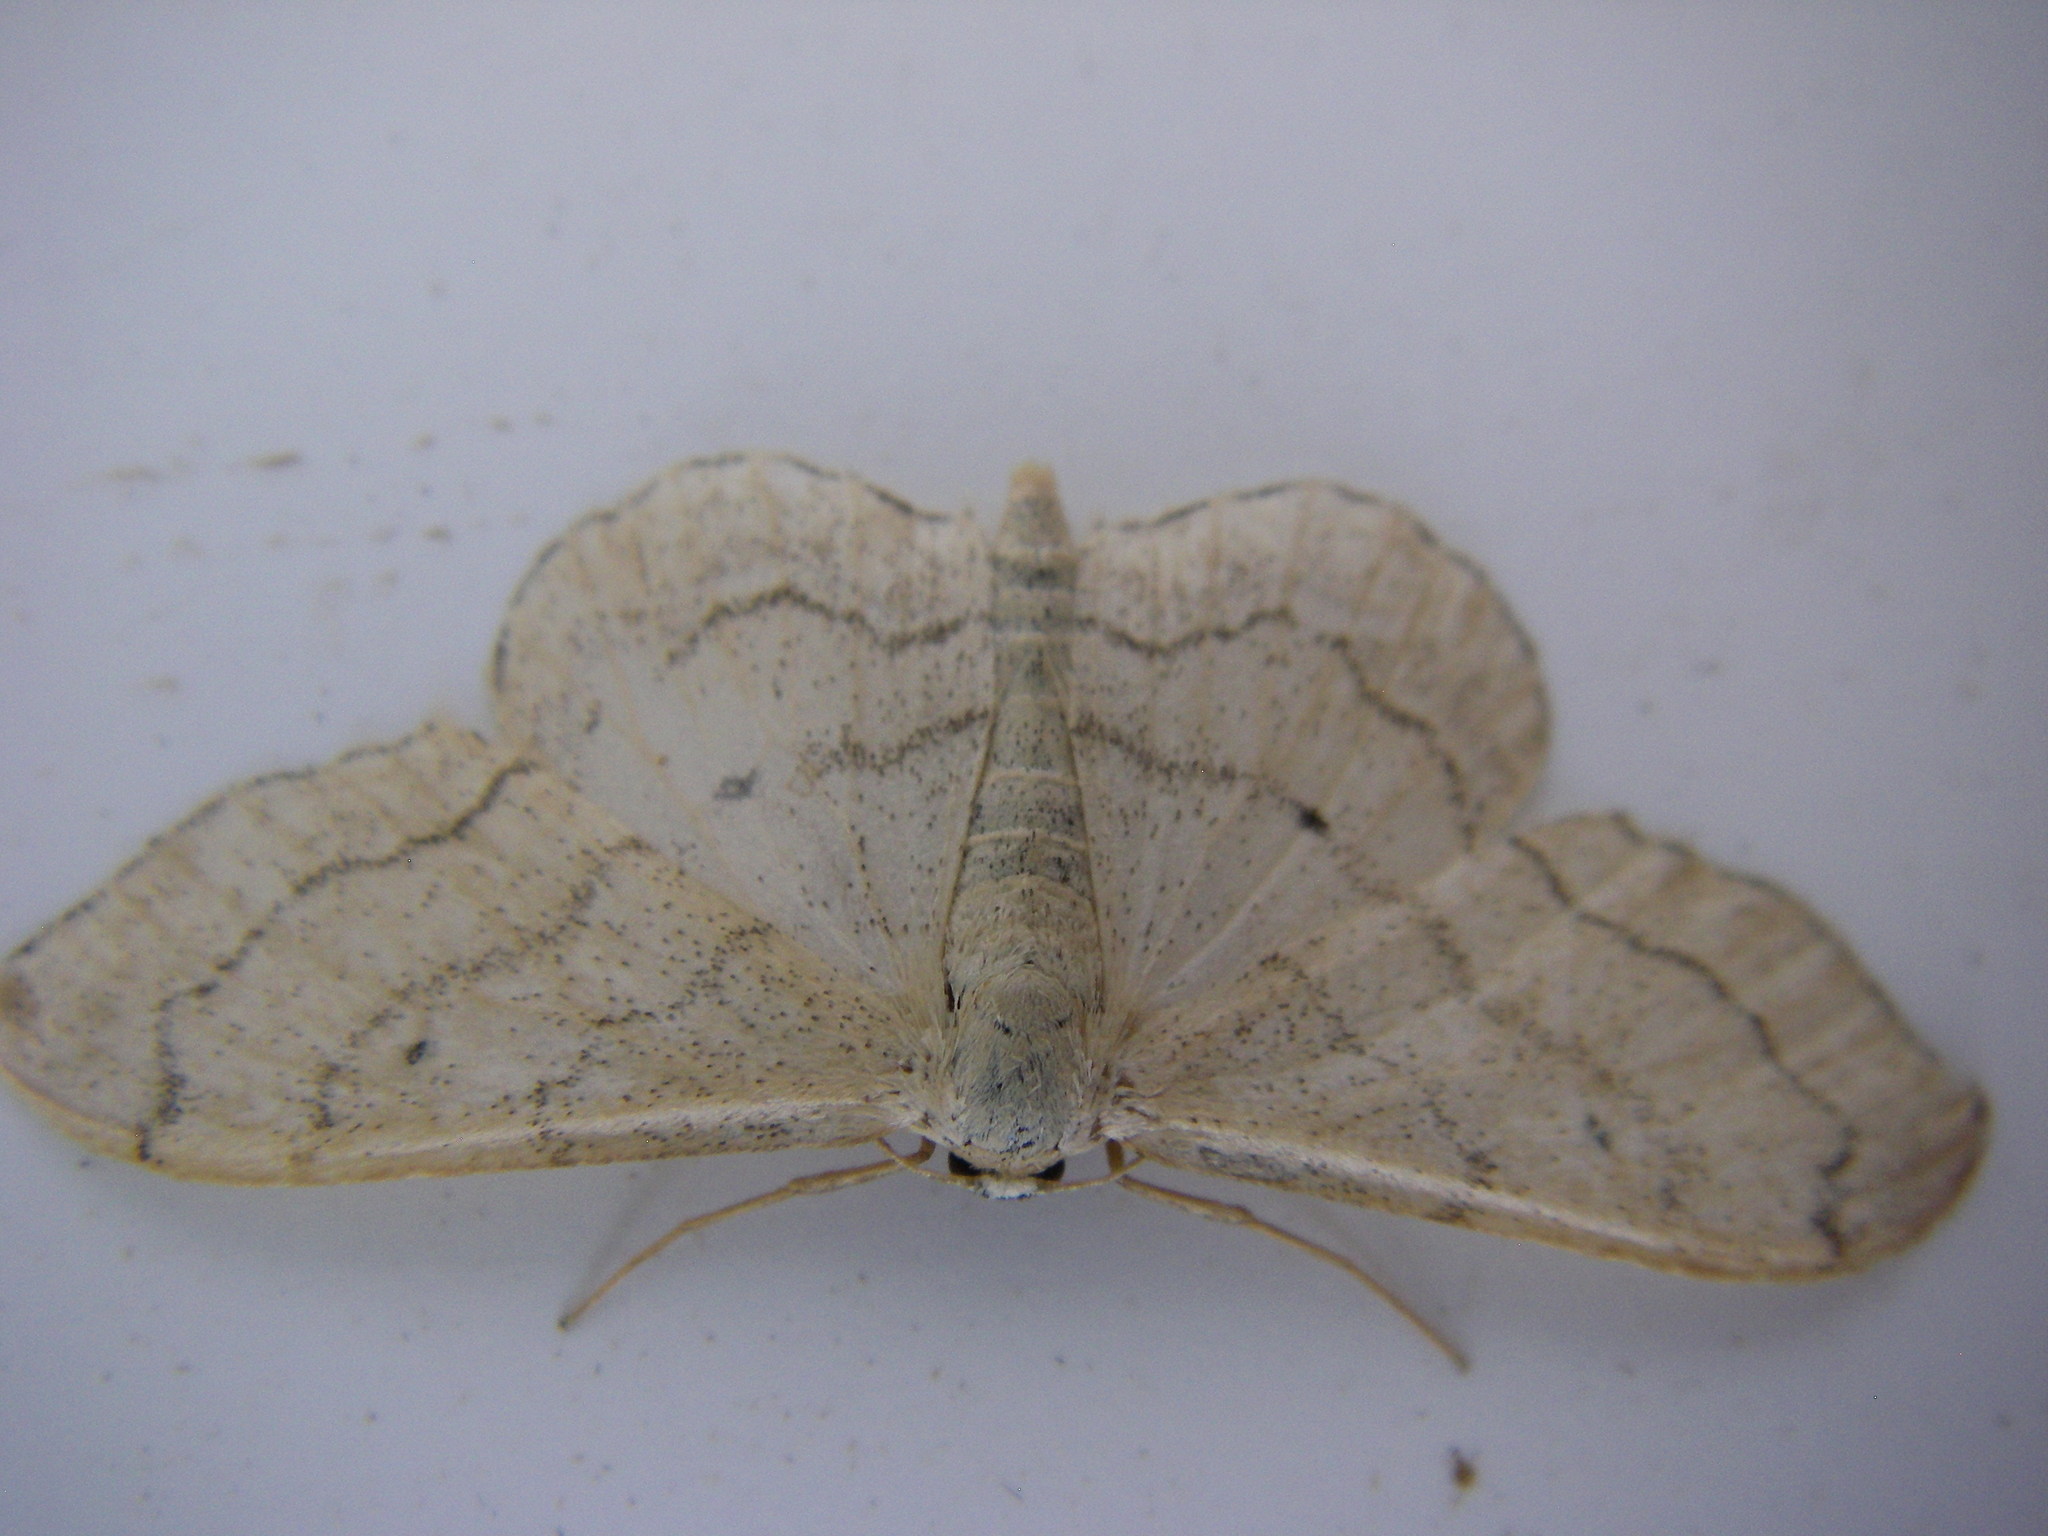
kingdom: Animalia
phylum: Arthropoda
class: Insecta
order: Lepidoptera
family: Geometridae
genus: Idaea
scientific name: Idaea aversata
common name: Riband wave
